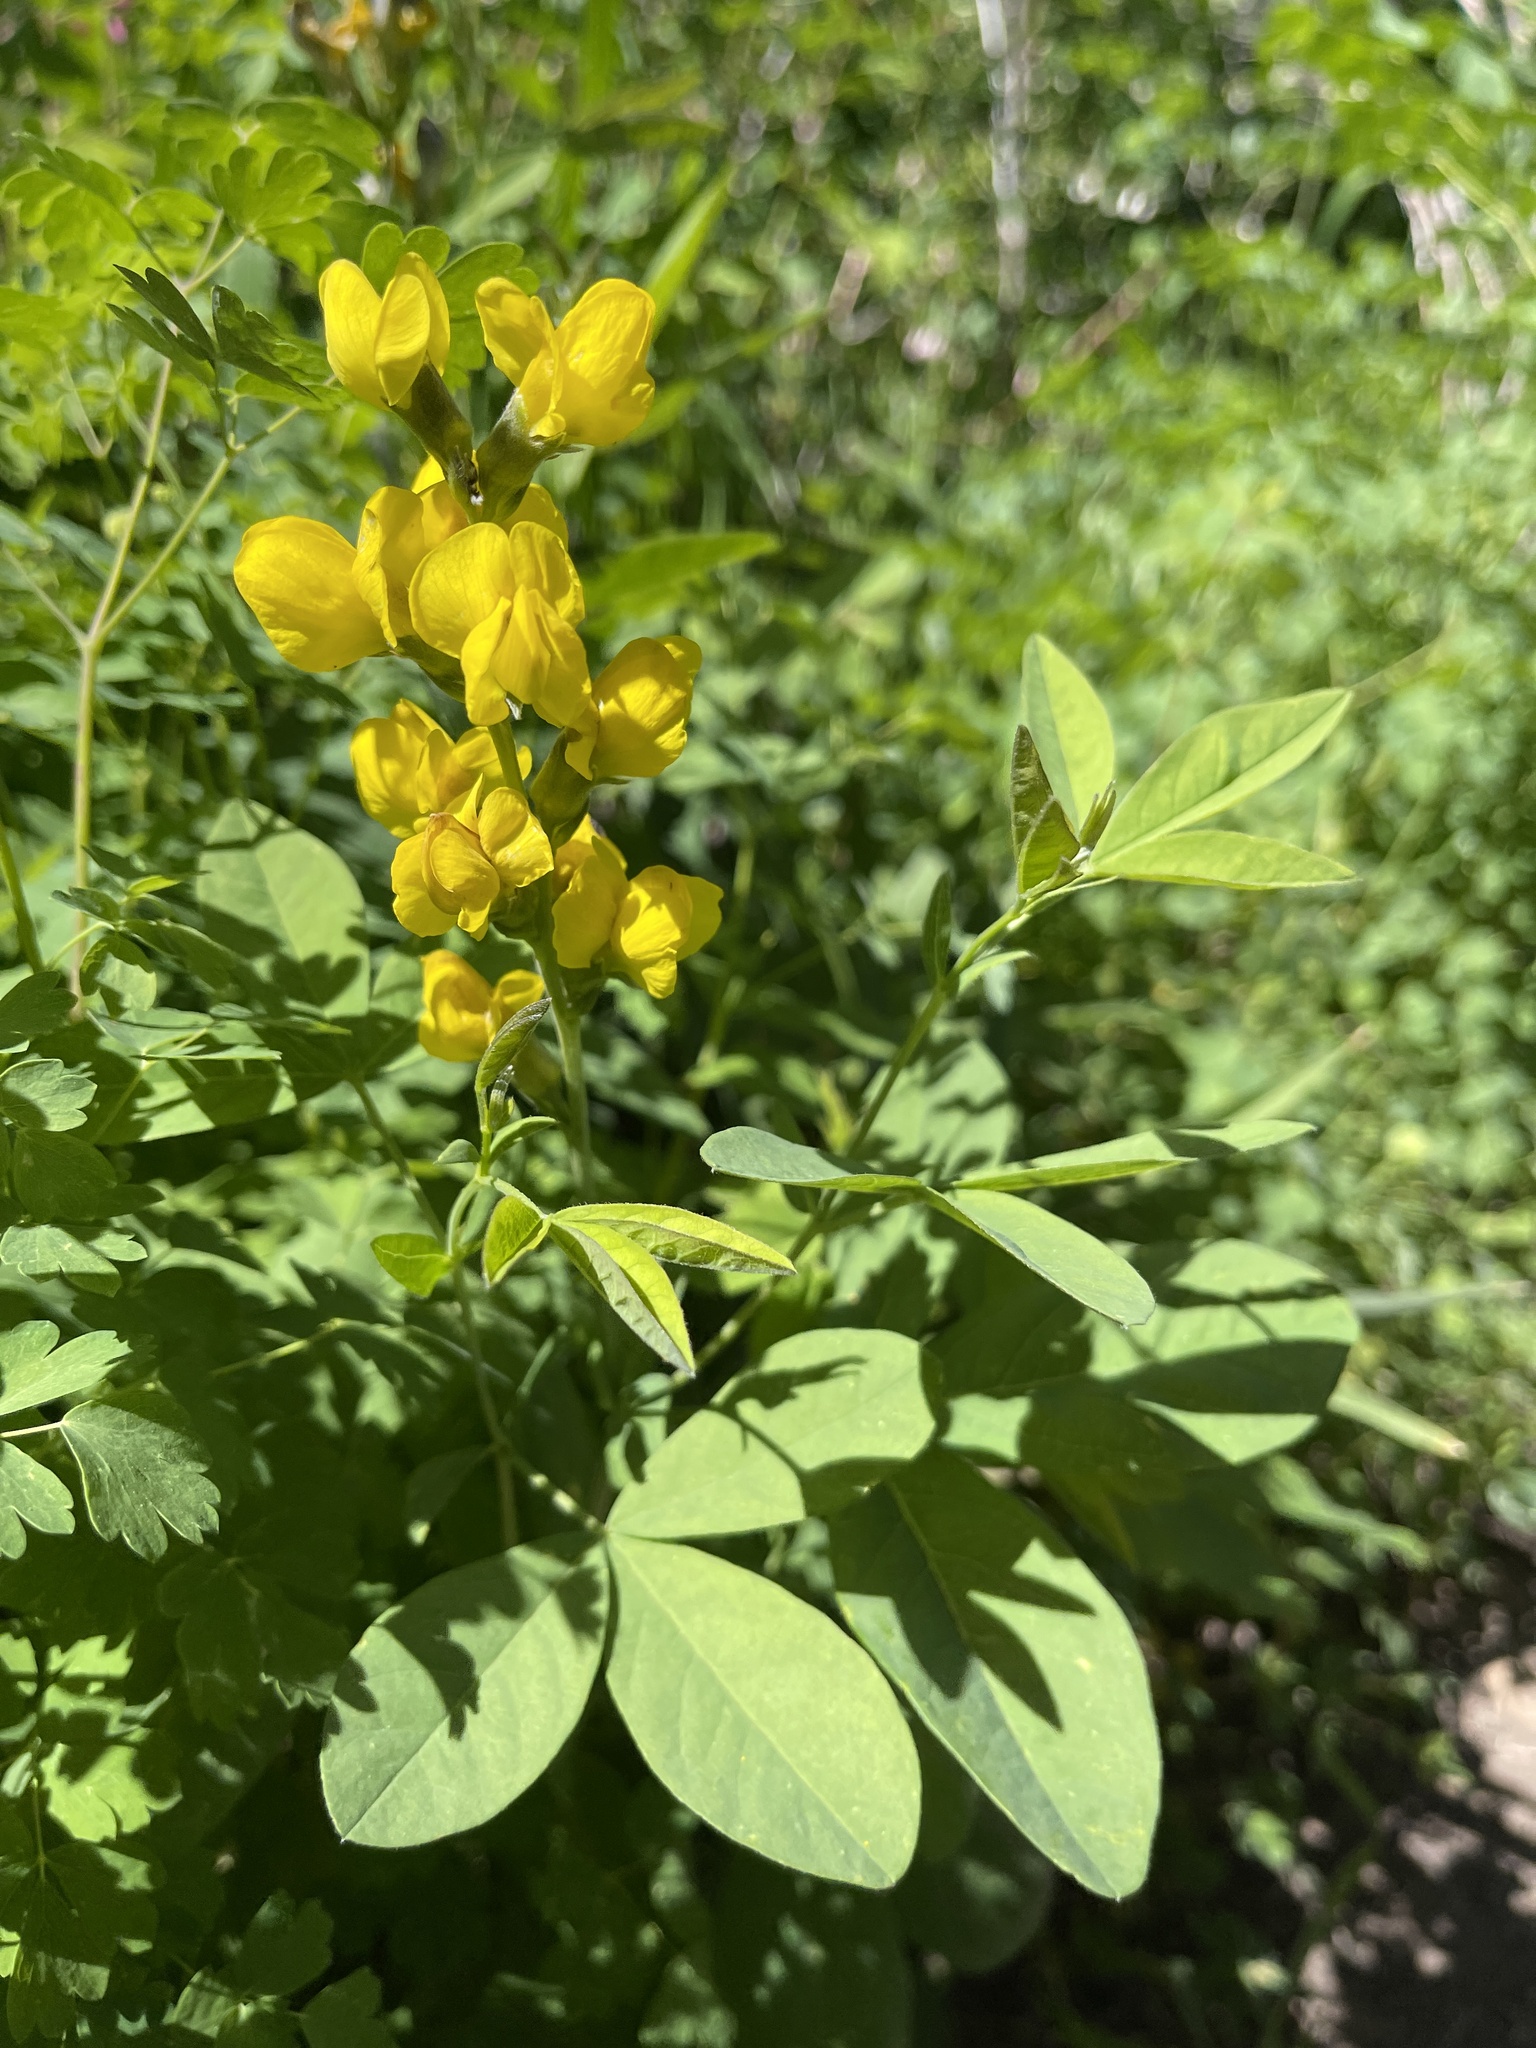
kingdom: Plantae
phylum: Tracheophyta
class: Magnoliopsida
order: Fabales
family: Fabaceae
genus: Thermopsis
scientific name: Thermopsis montana
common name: False lupin
